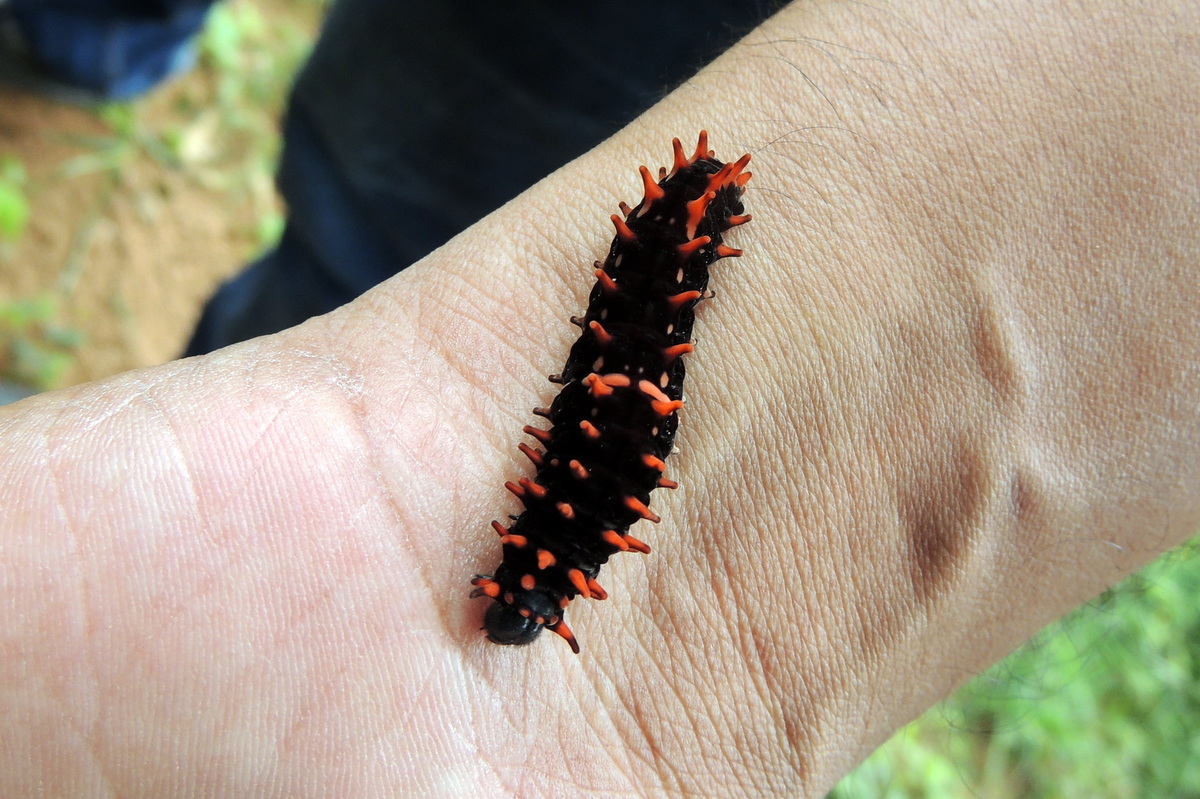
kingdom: Animalia
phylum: Arthropoda
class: Insecta
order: Lepidoptera
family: Papilionidae
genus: Pachliopta
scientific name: Pachliopta hector
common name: Crimson rose
